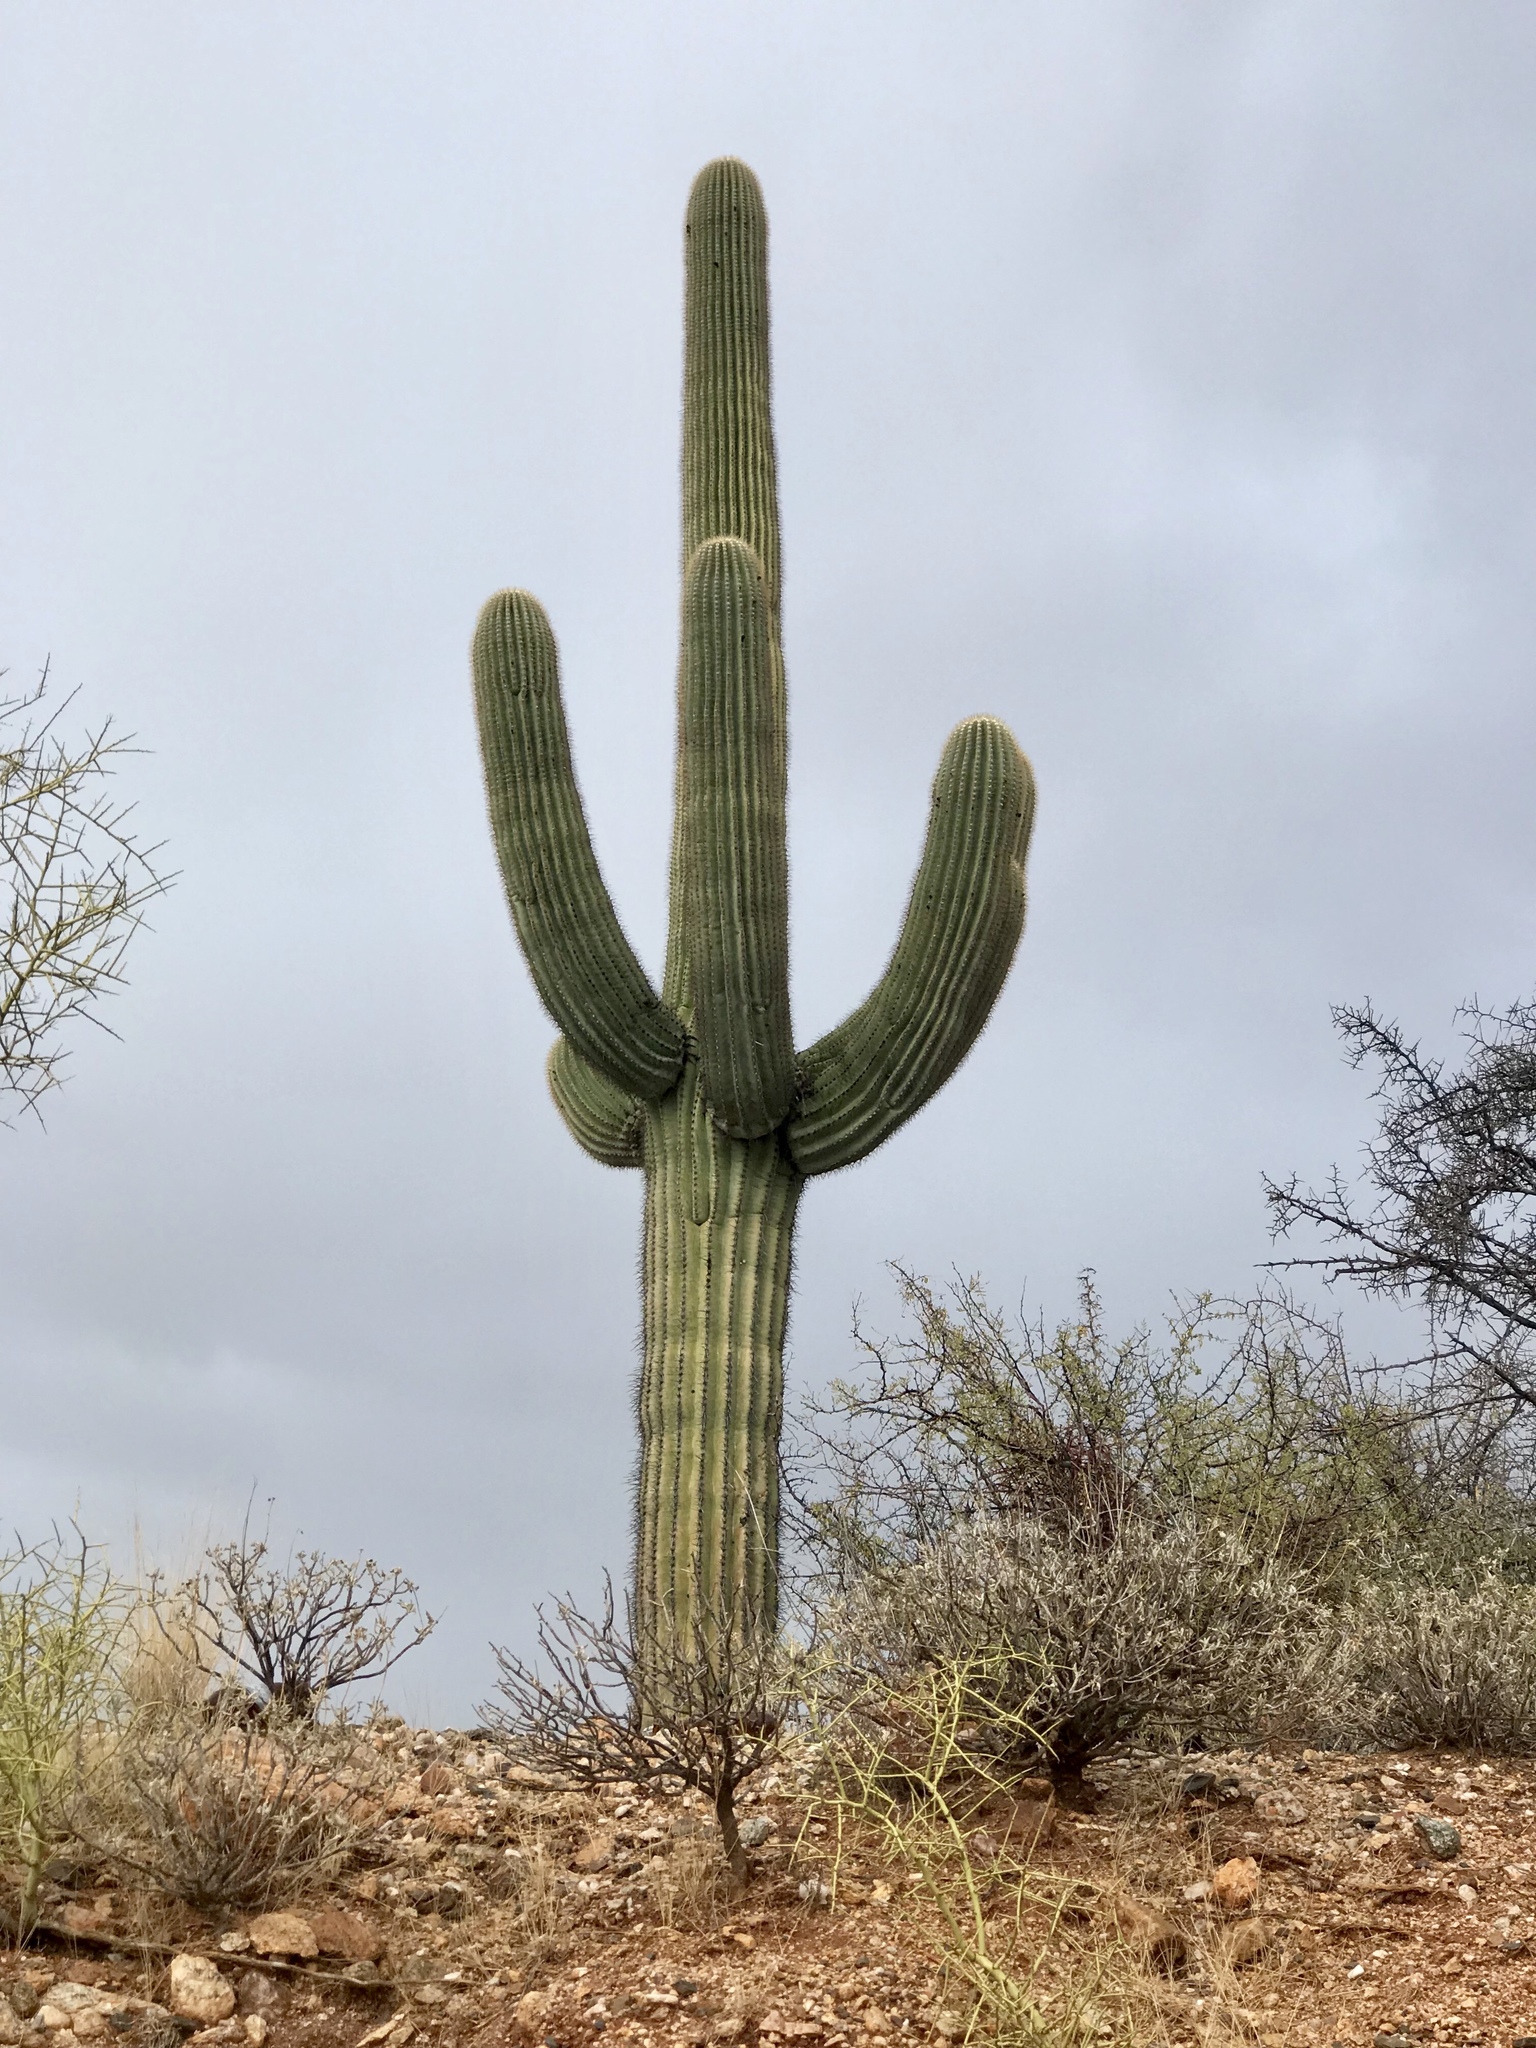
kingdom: Plantae
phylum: Tracheophyta
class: Magnoliopsida
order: Caryophyllales
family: Cactaceae
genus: Carnegiea
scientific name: Carnegiea gigantea
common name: Saguaro
